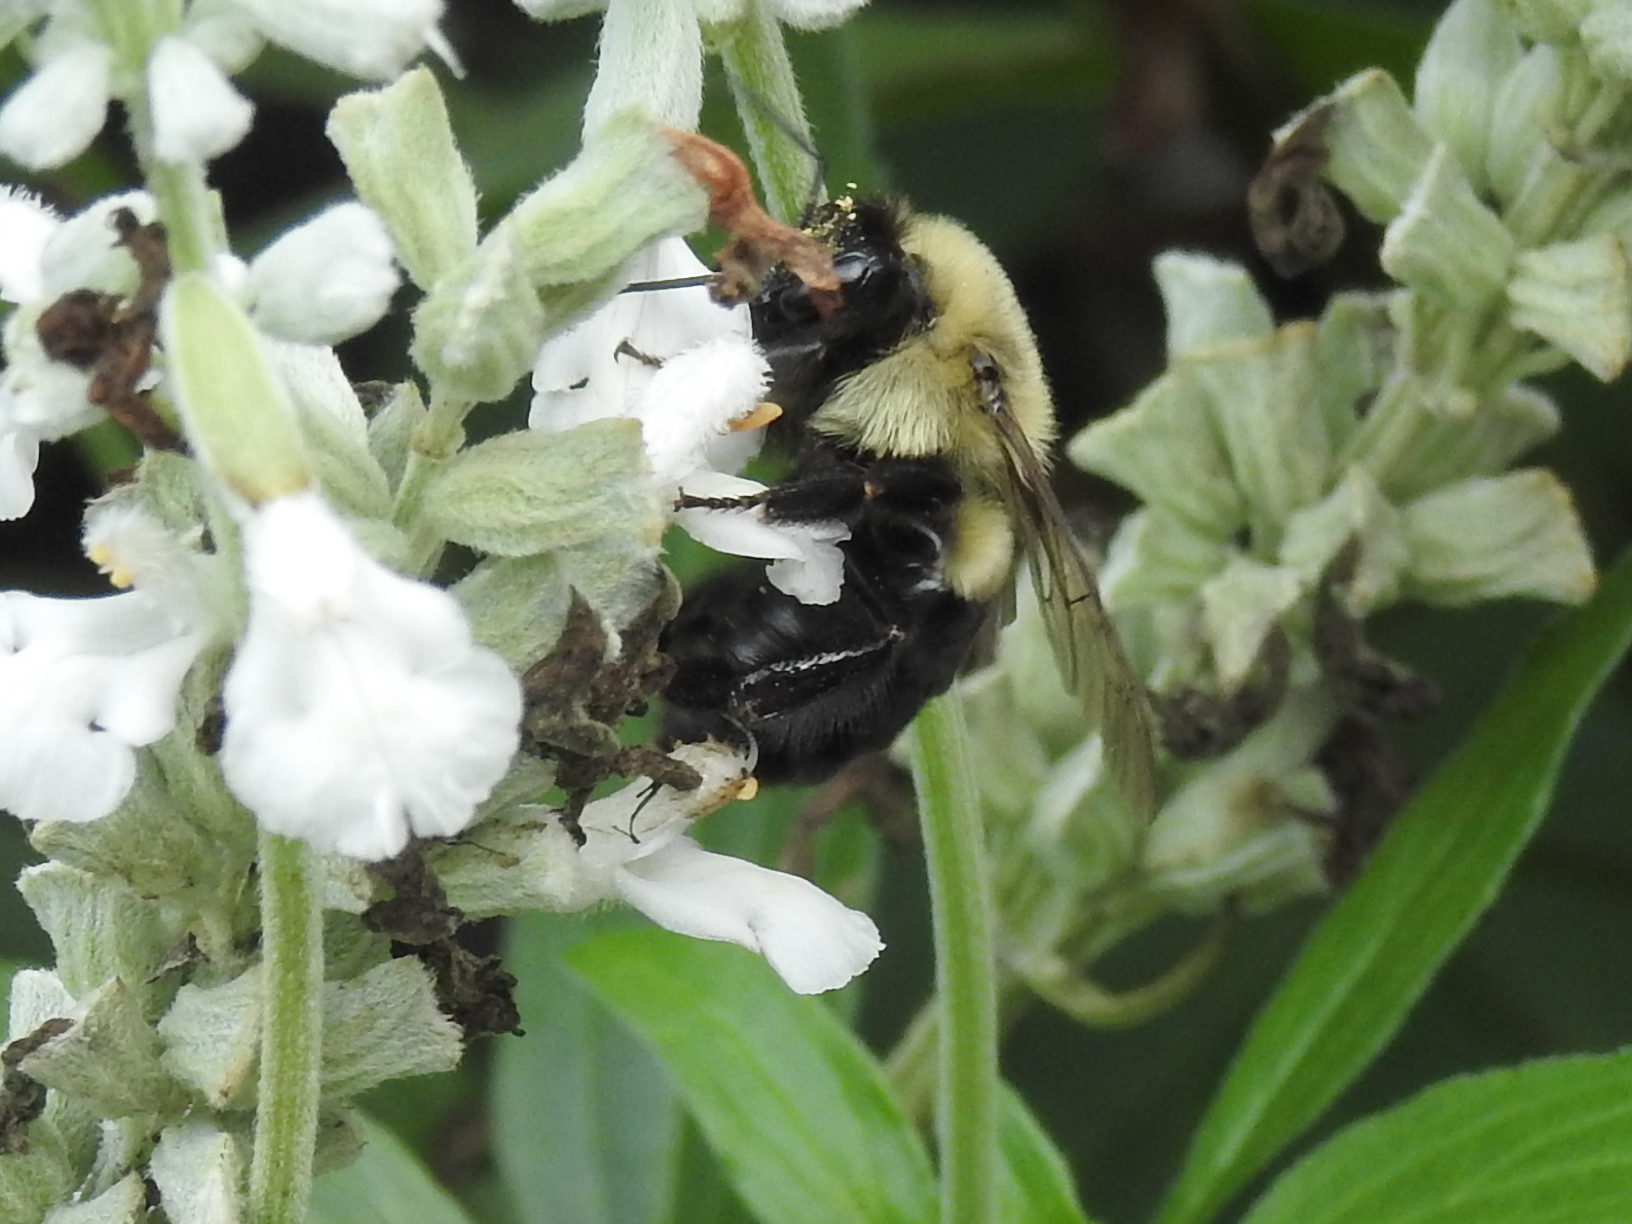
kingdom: Animalia
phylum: Arthropoda
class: Insecta
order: Hymenoptera
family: Apidae
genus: Bombus
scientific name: Bombus impatiens
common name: Common eastern bumble bee
